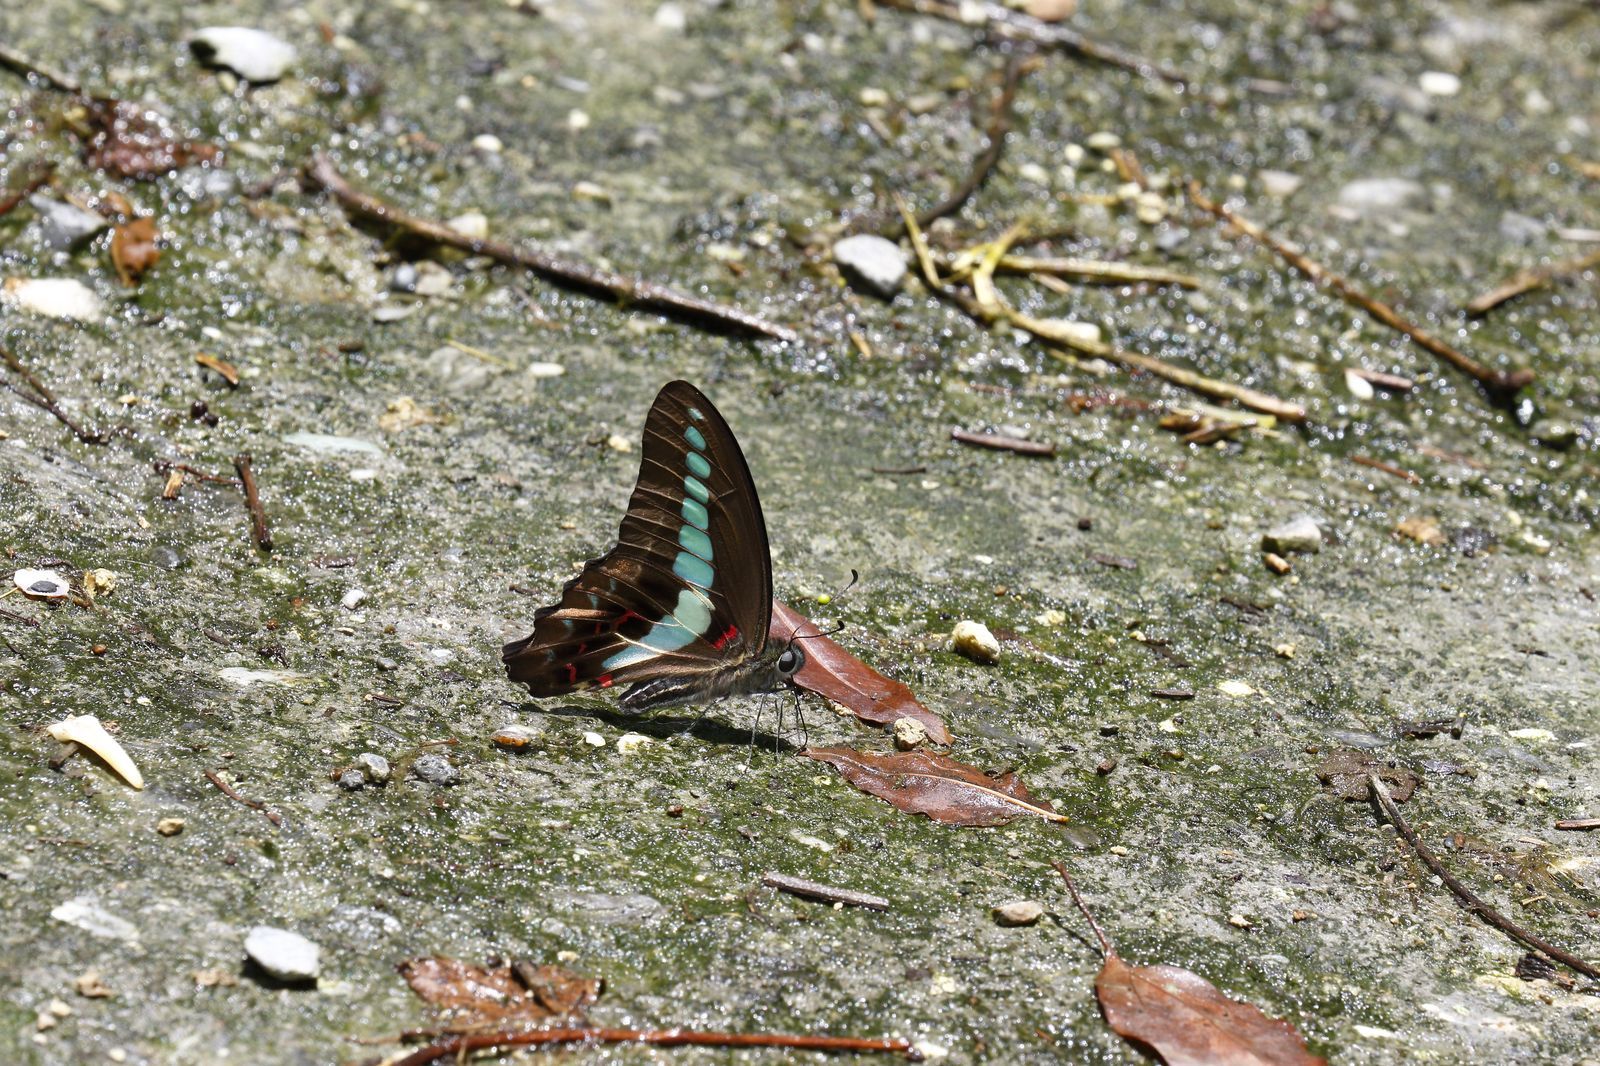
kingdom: Fungi
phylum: Ascomycota
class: Sordariomycetes
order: Microascales
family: Microascaceae
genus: Graphium
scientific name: Graphium sarpedon
